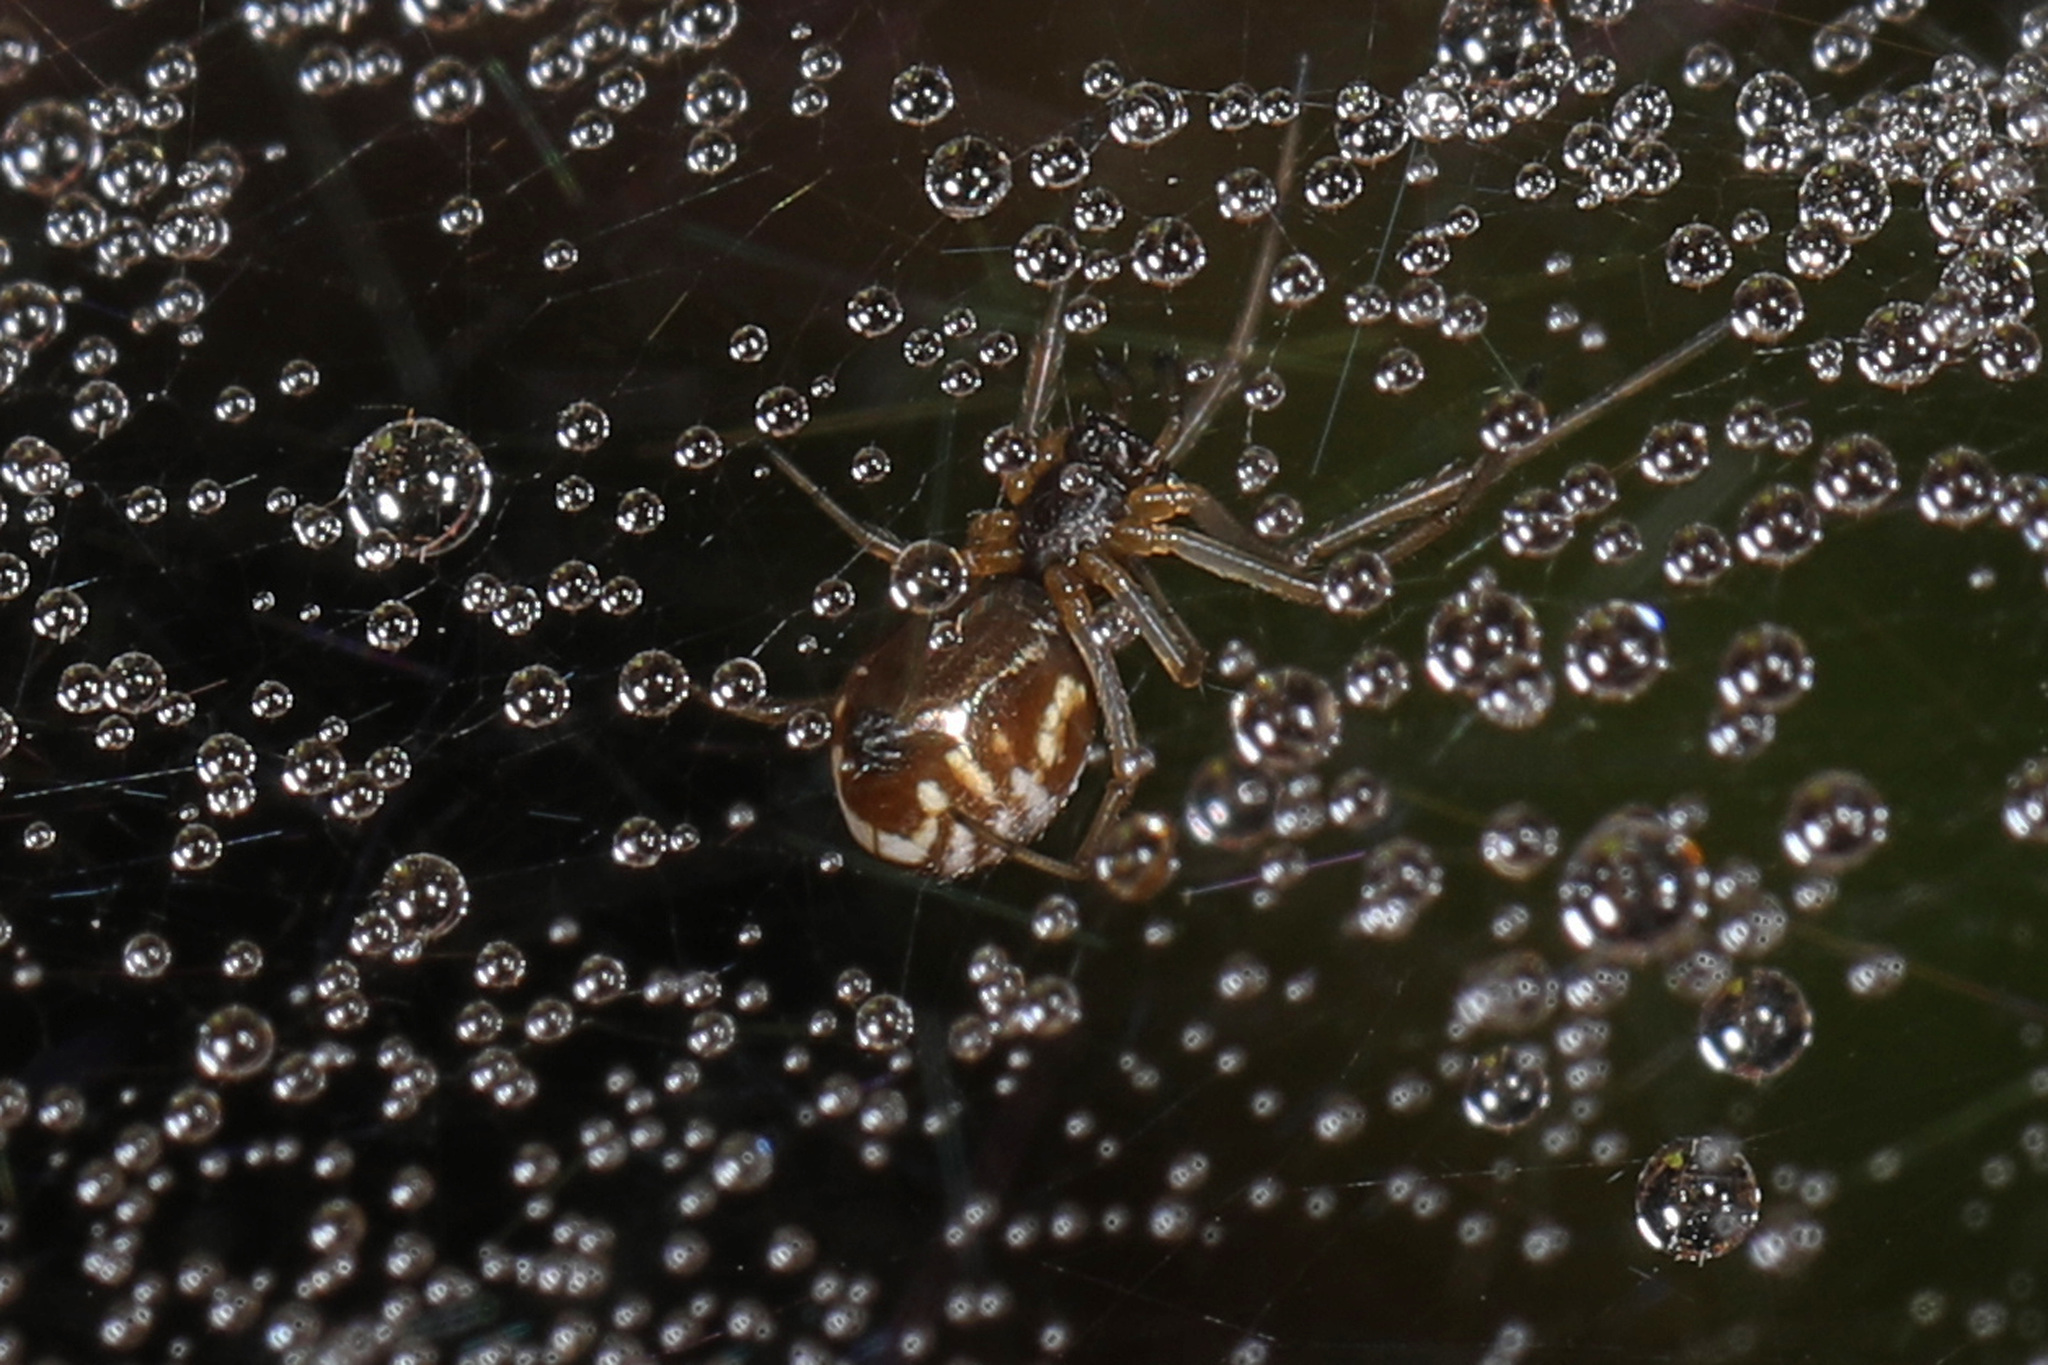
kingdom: Animalia
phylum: Arthropoda
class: Arachnida
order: Araneae
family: Linyphiidae
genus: Frontinella
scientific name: Frontinella pyramitela
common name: Bowl-and-doily spider
